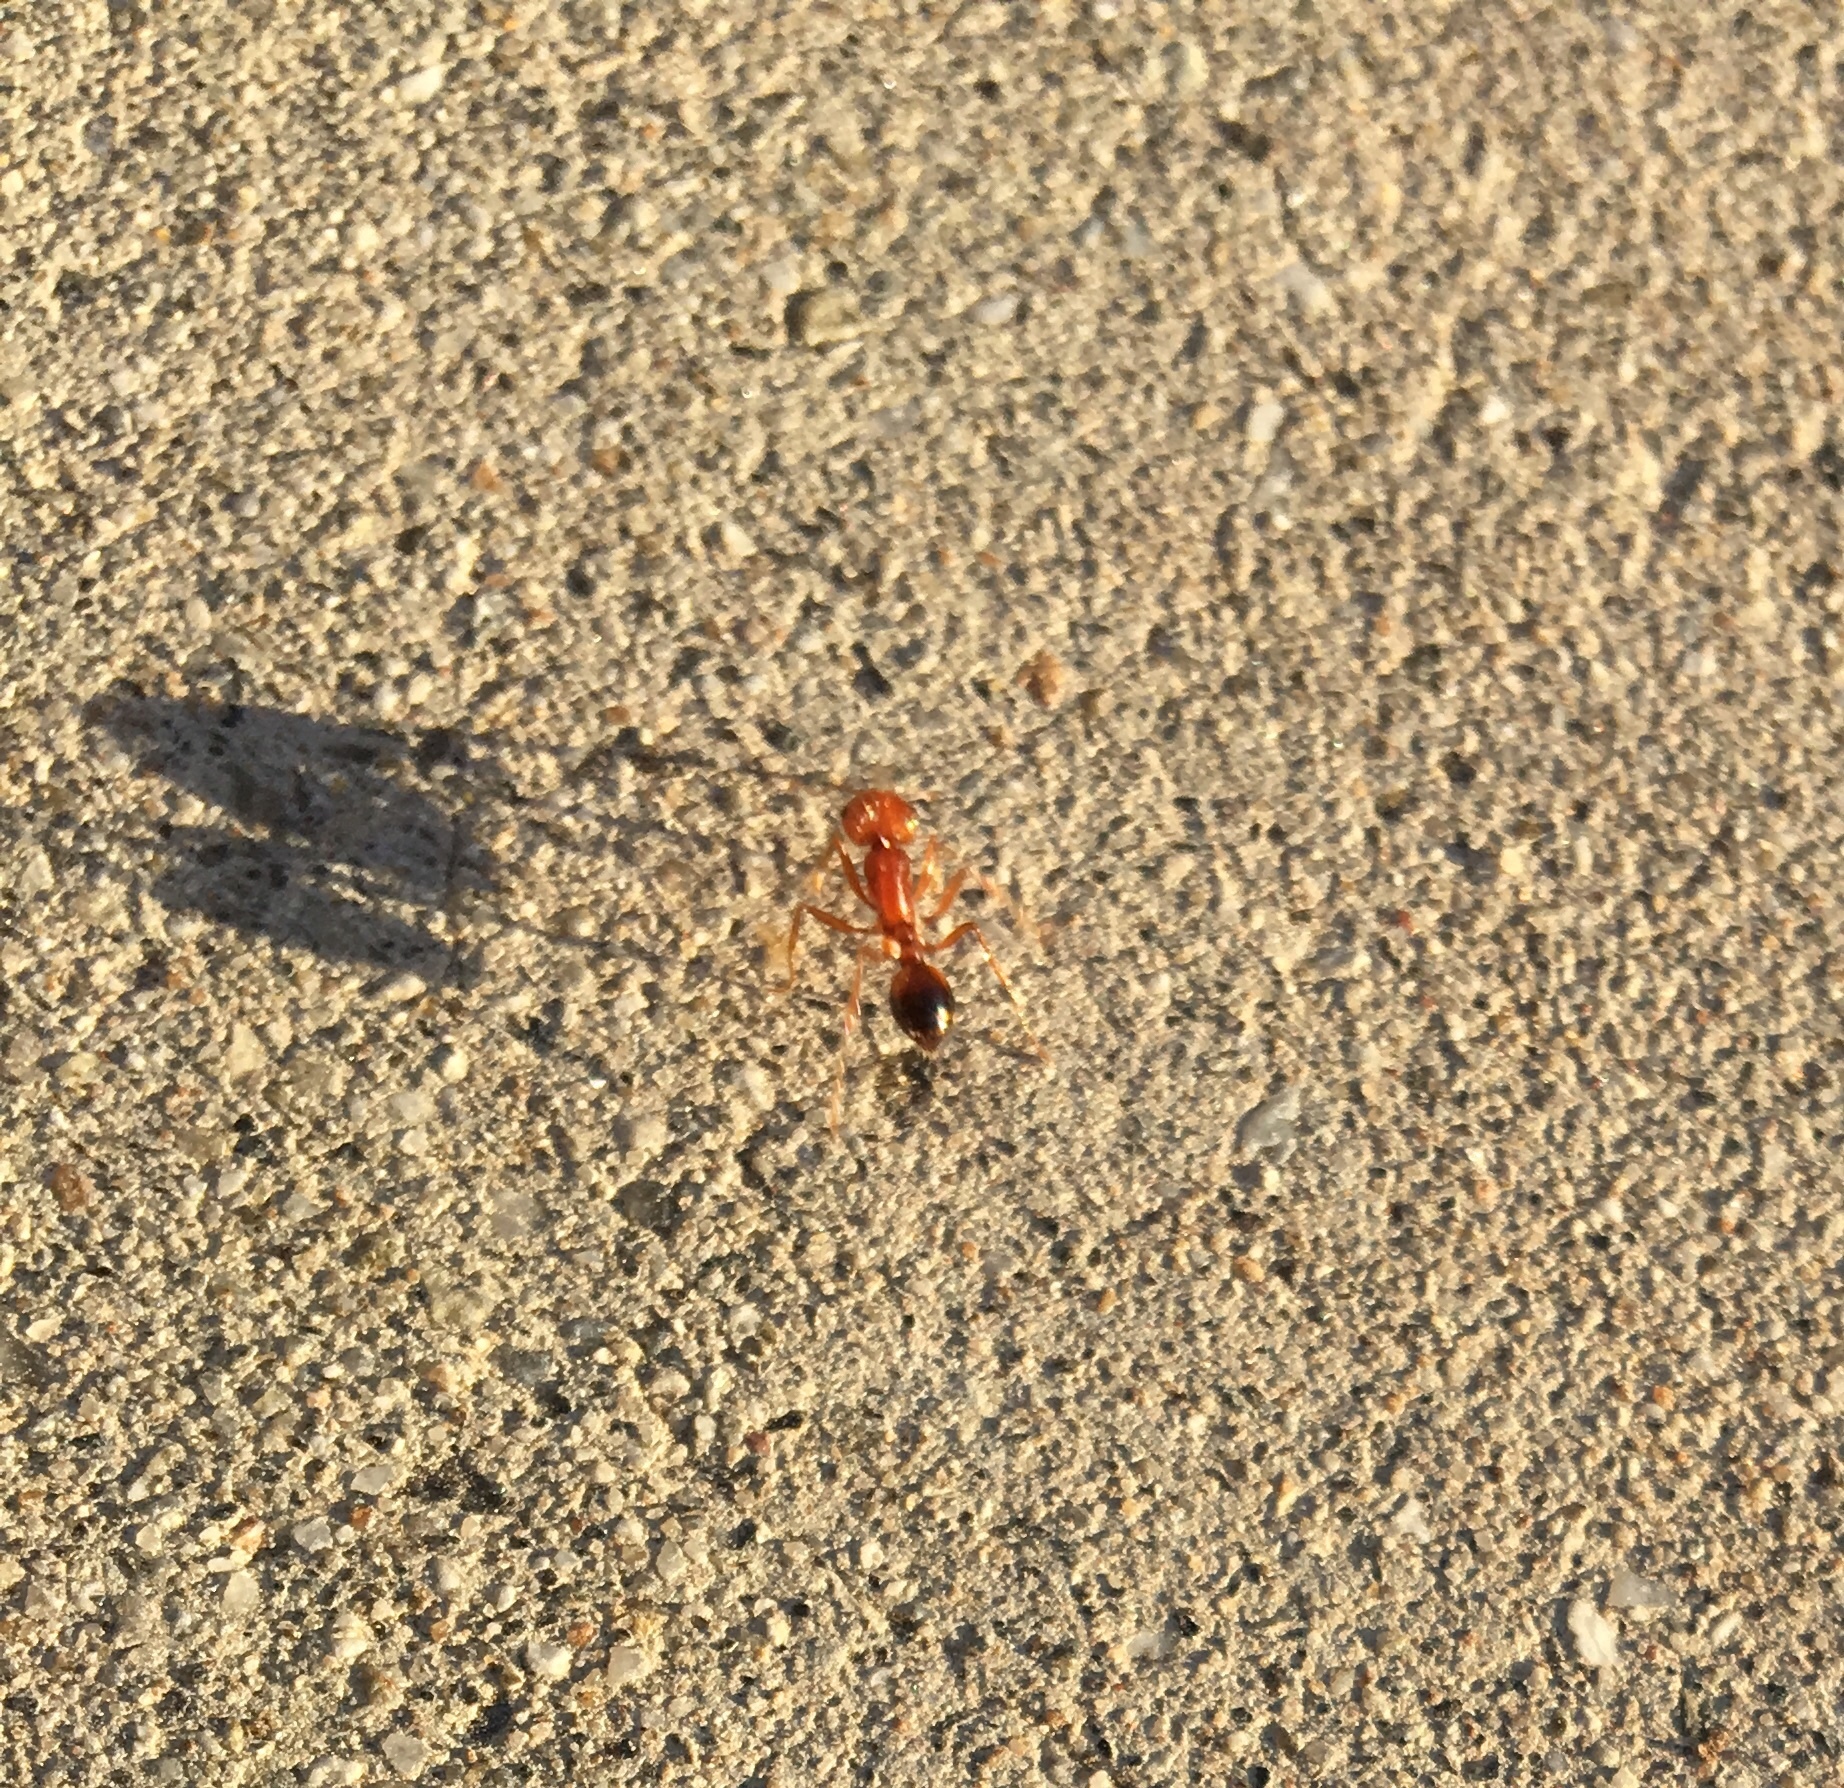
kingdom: Animalia
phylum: Arthropoda
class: Insecta
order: Hymenoptera
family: Formicidae
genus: Pogonomyrmex
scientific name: Pogonomyrmex californicus
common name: California harvester ant
